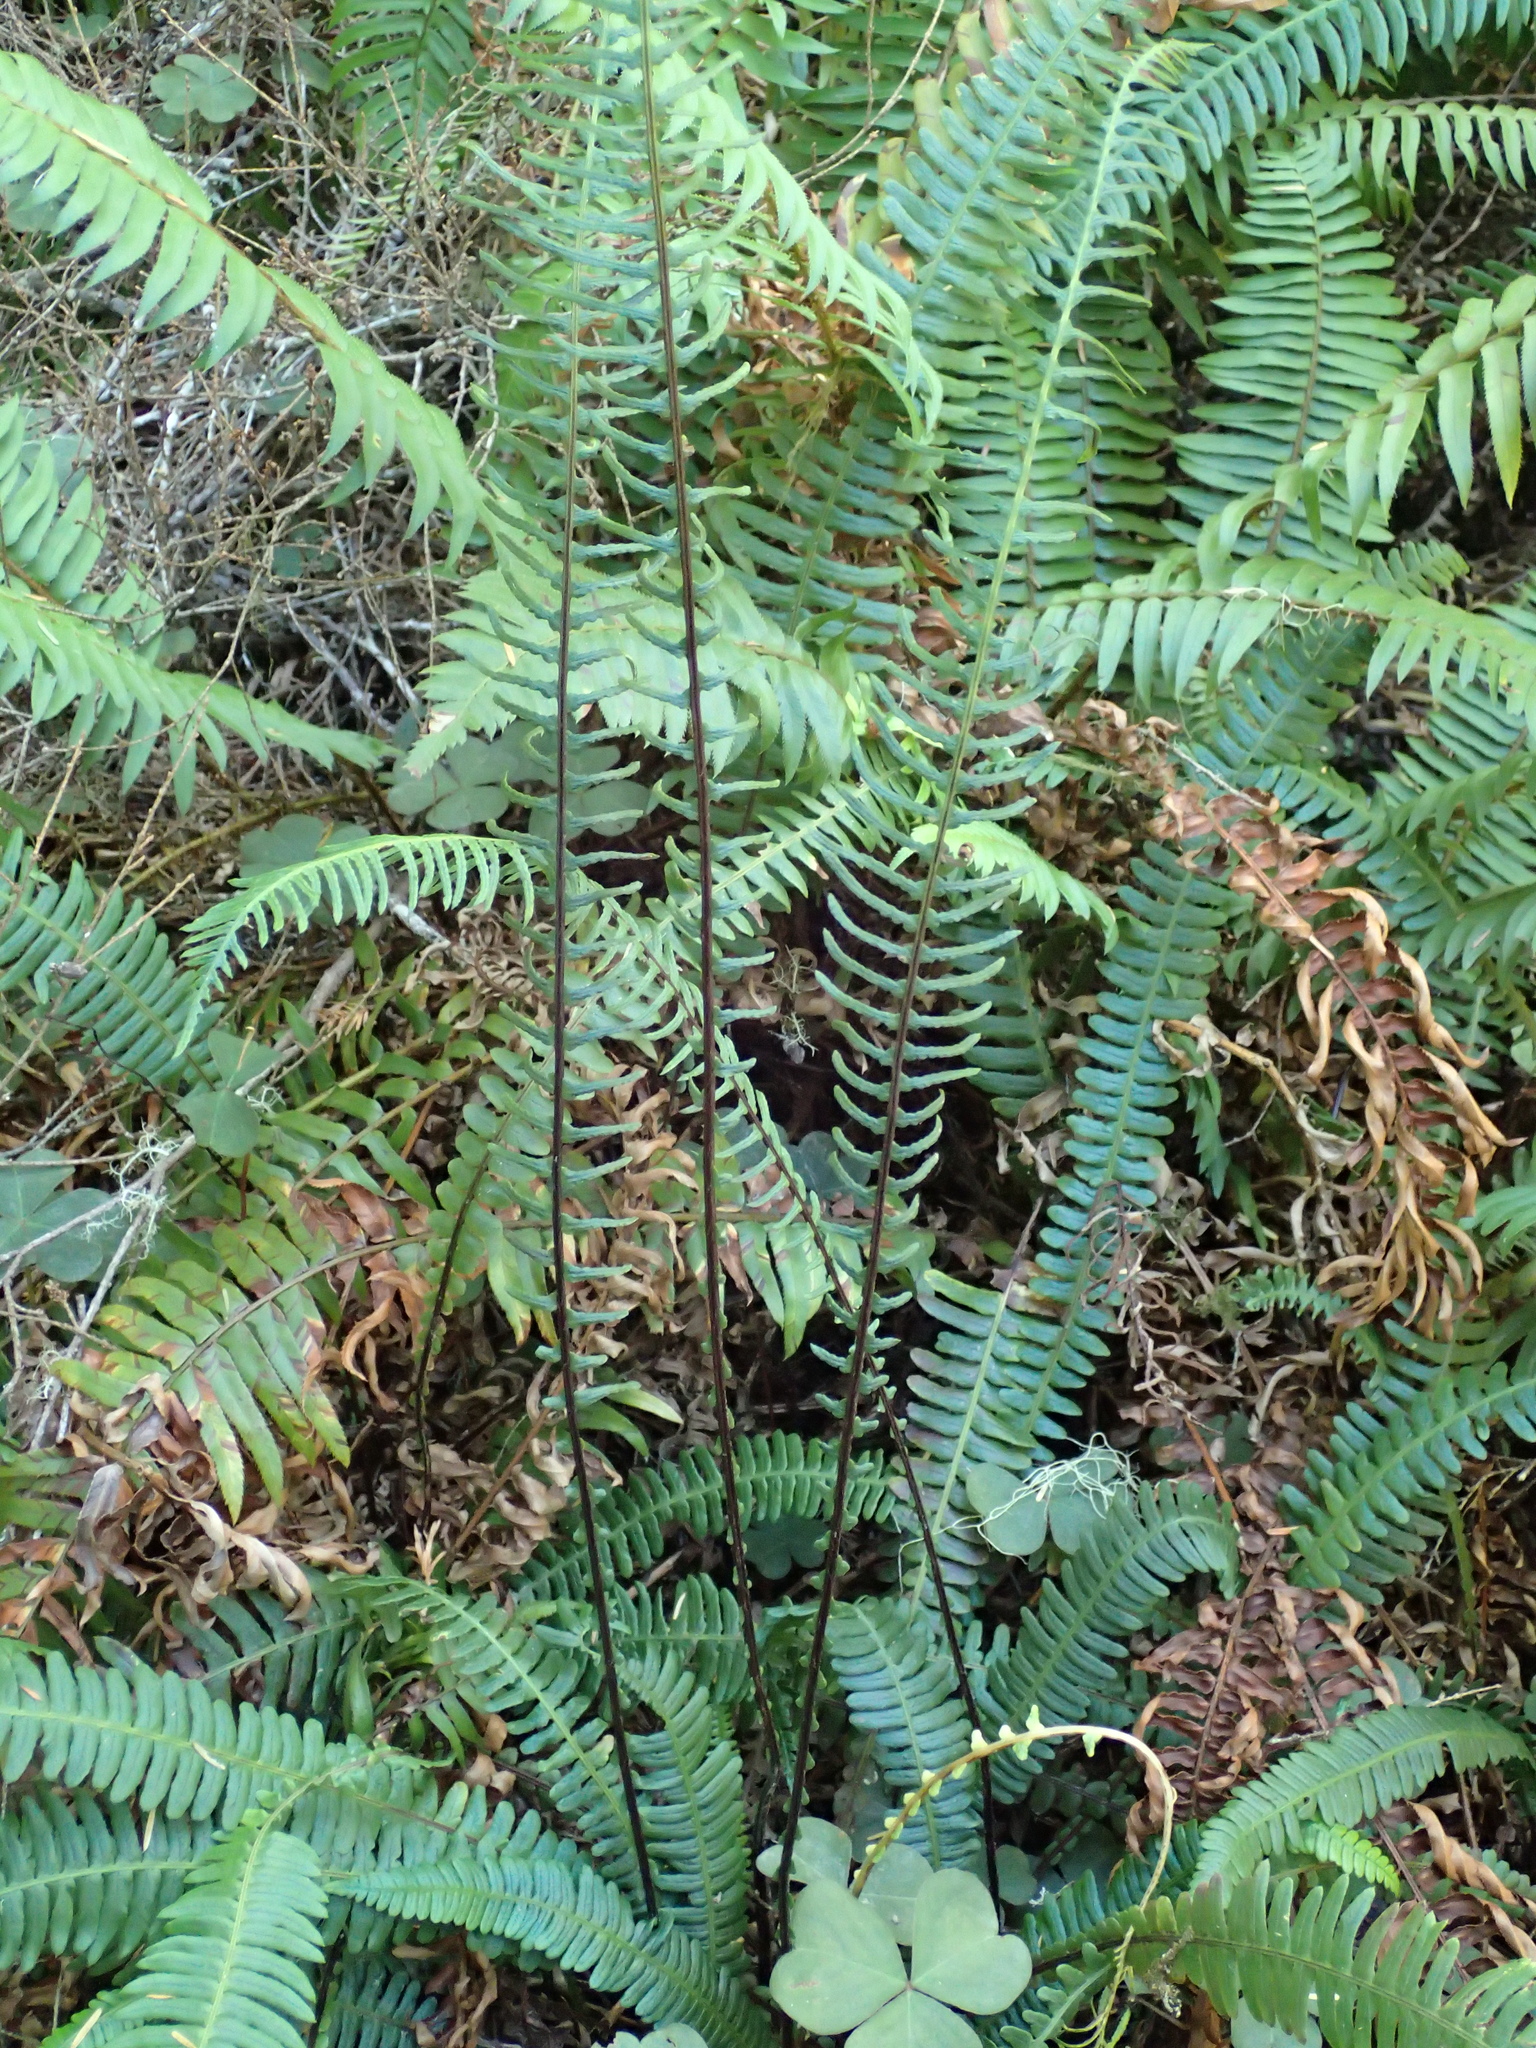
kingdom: Plantae
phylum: Tracheophyta
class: Polypodiopsida
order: Polypodiales
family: Blechnaceae
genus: Struthiopteris
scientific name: Struthiopteris spicant
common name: Deer fern
